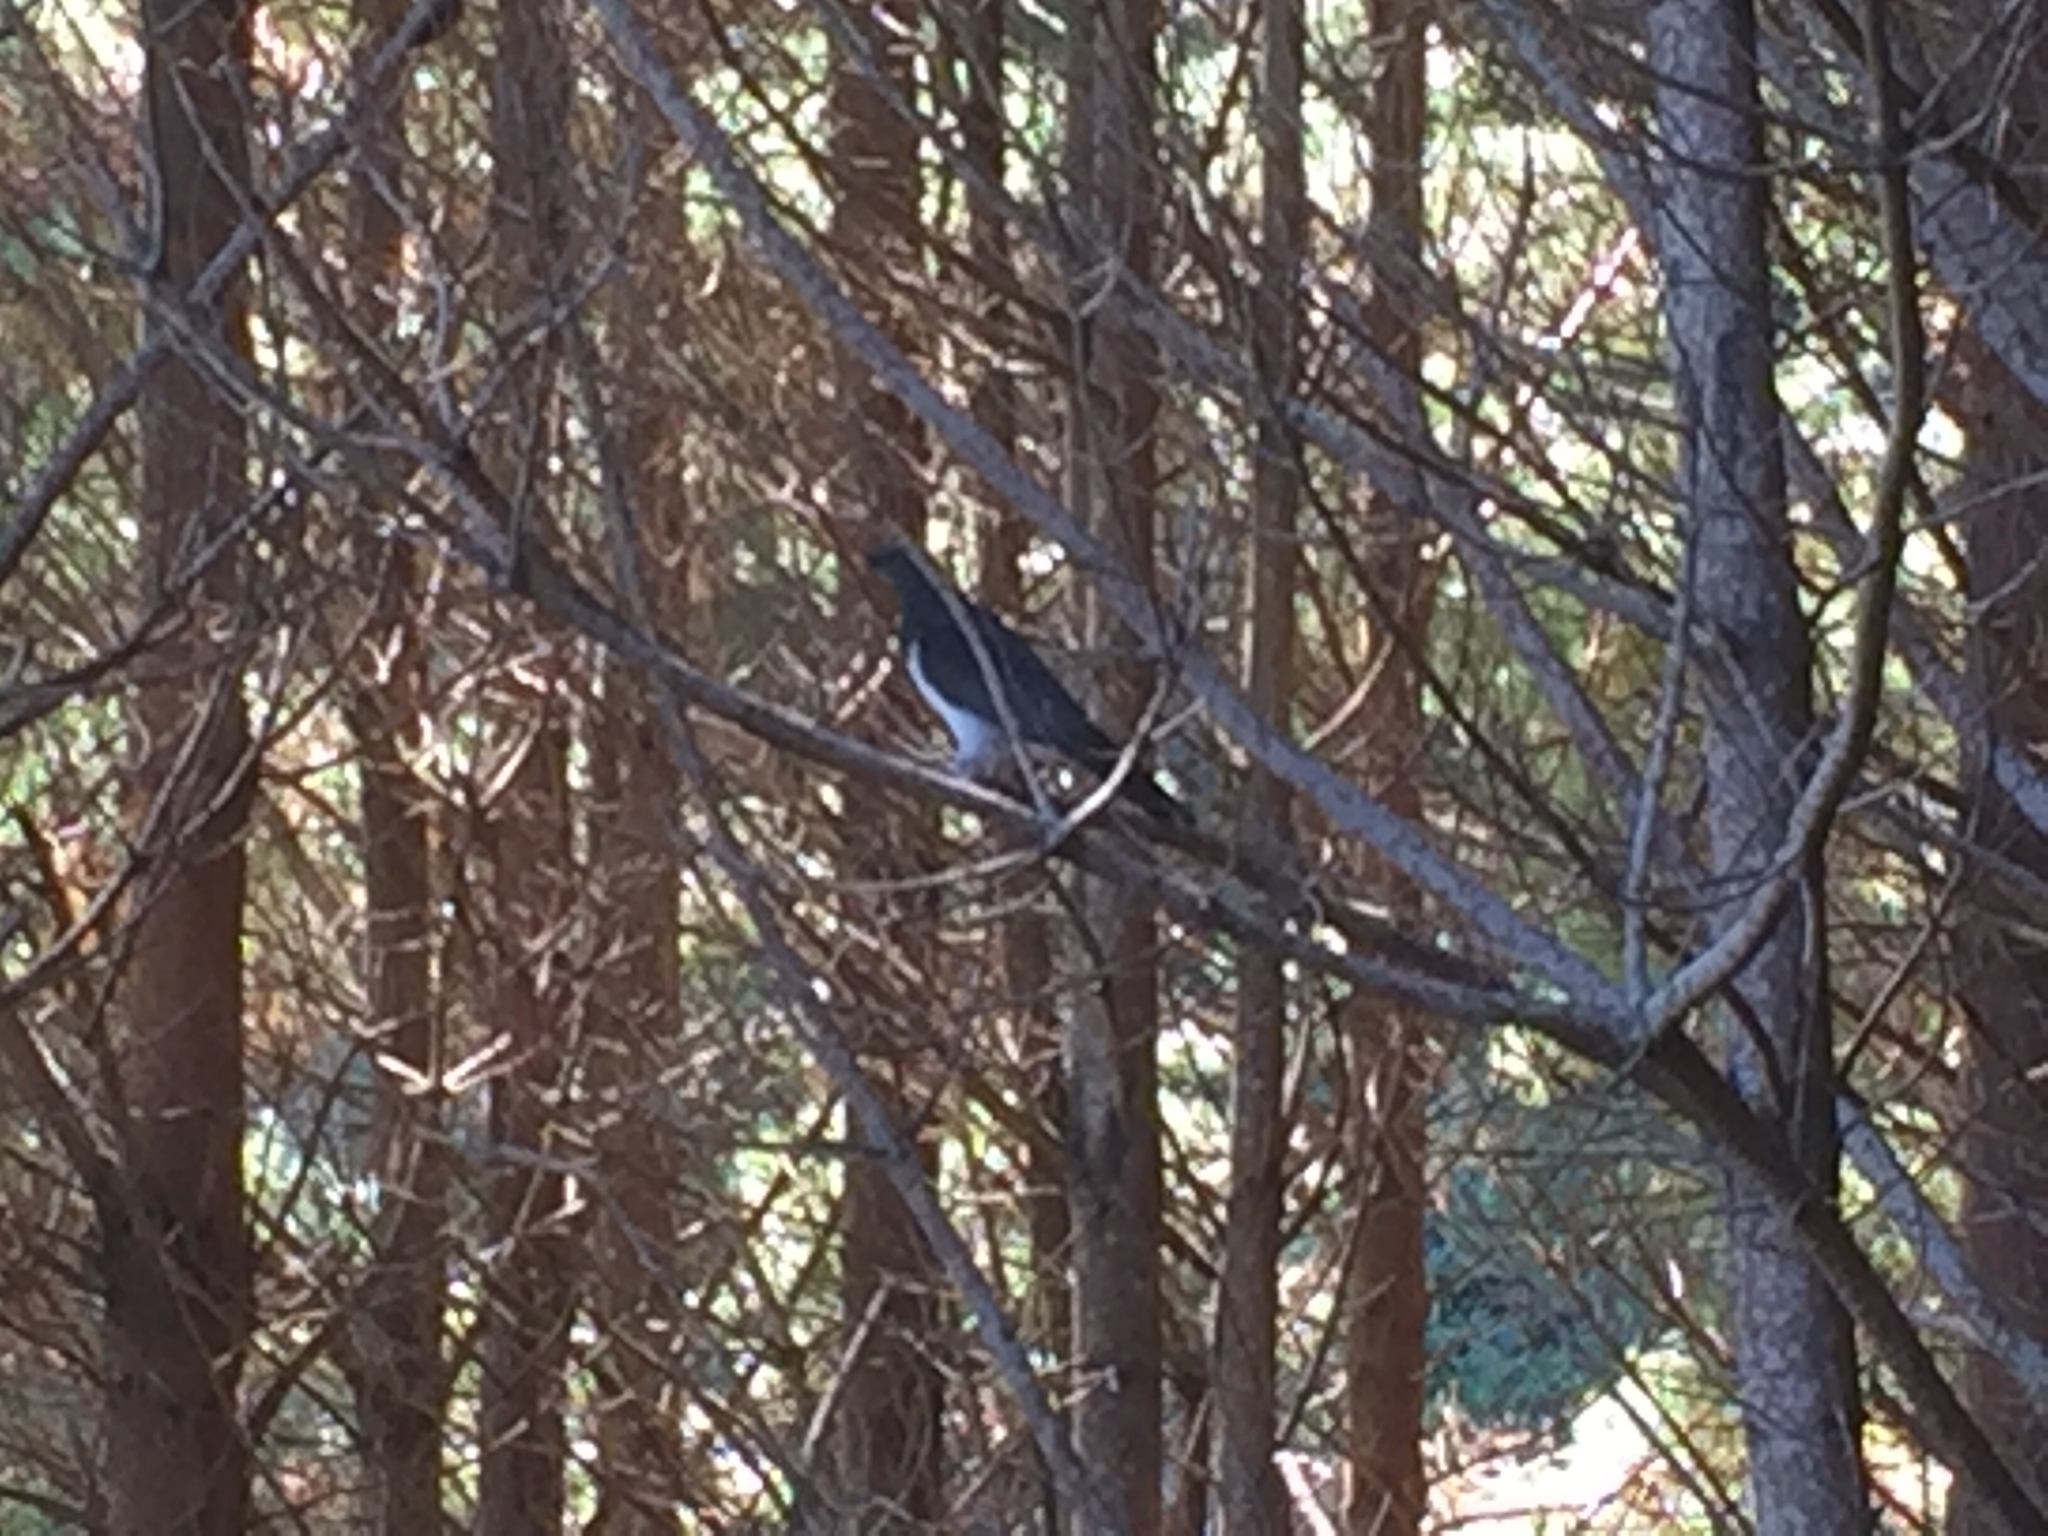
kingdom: Animalia
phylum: Chordata
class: Aves
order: Columbiformes
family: Columbidae
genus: Hemiphaga
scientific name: Hemiphaga novaeseelandiae
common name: New zealand pigeon
